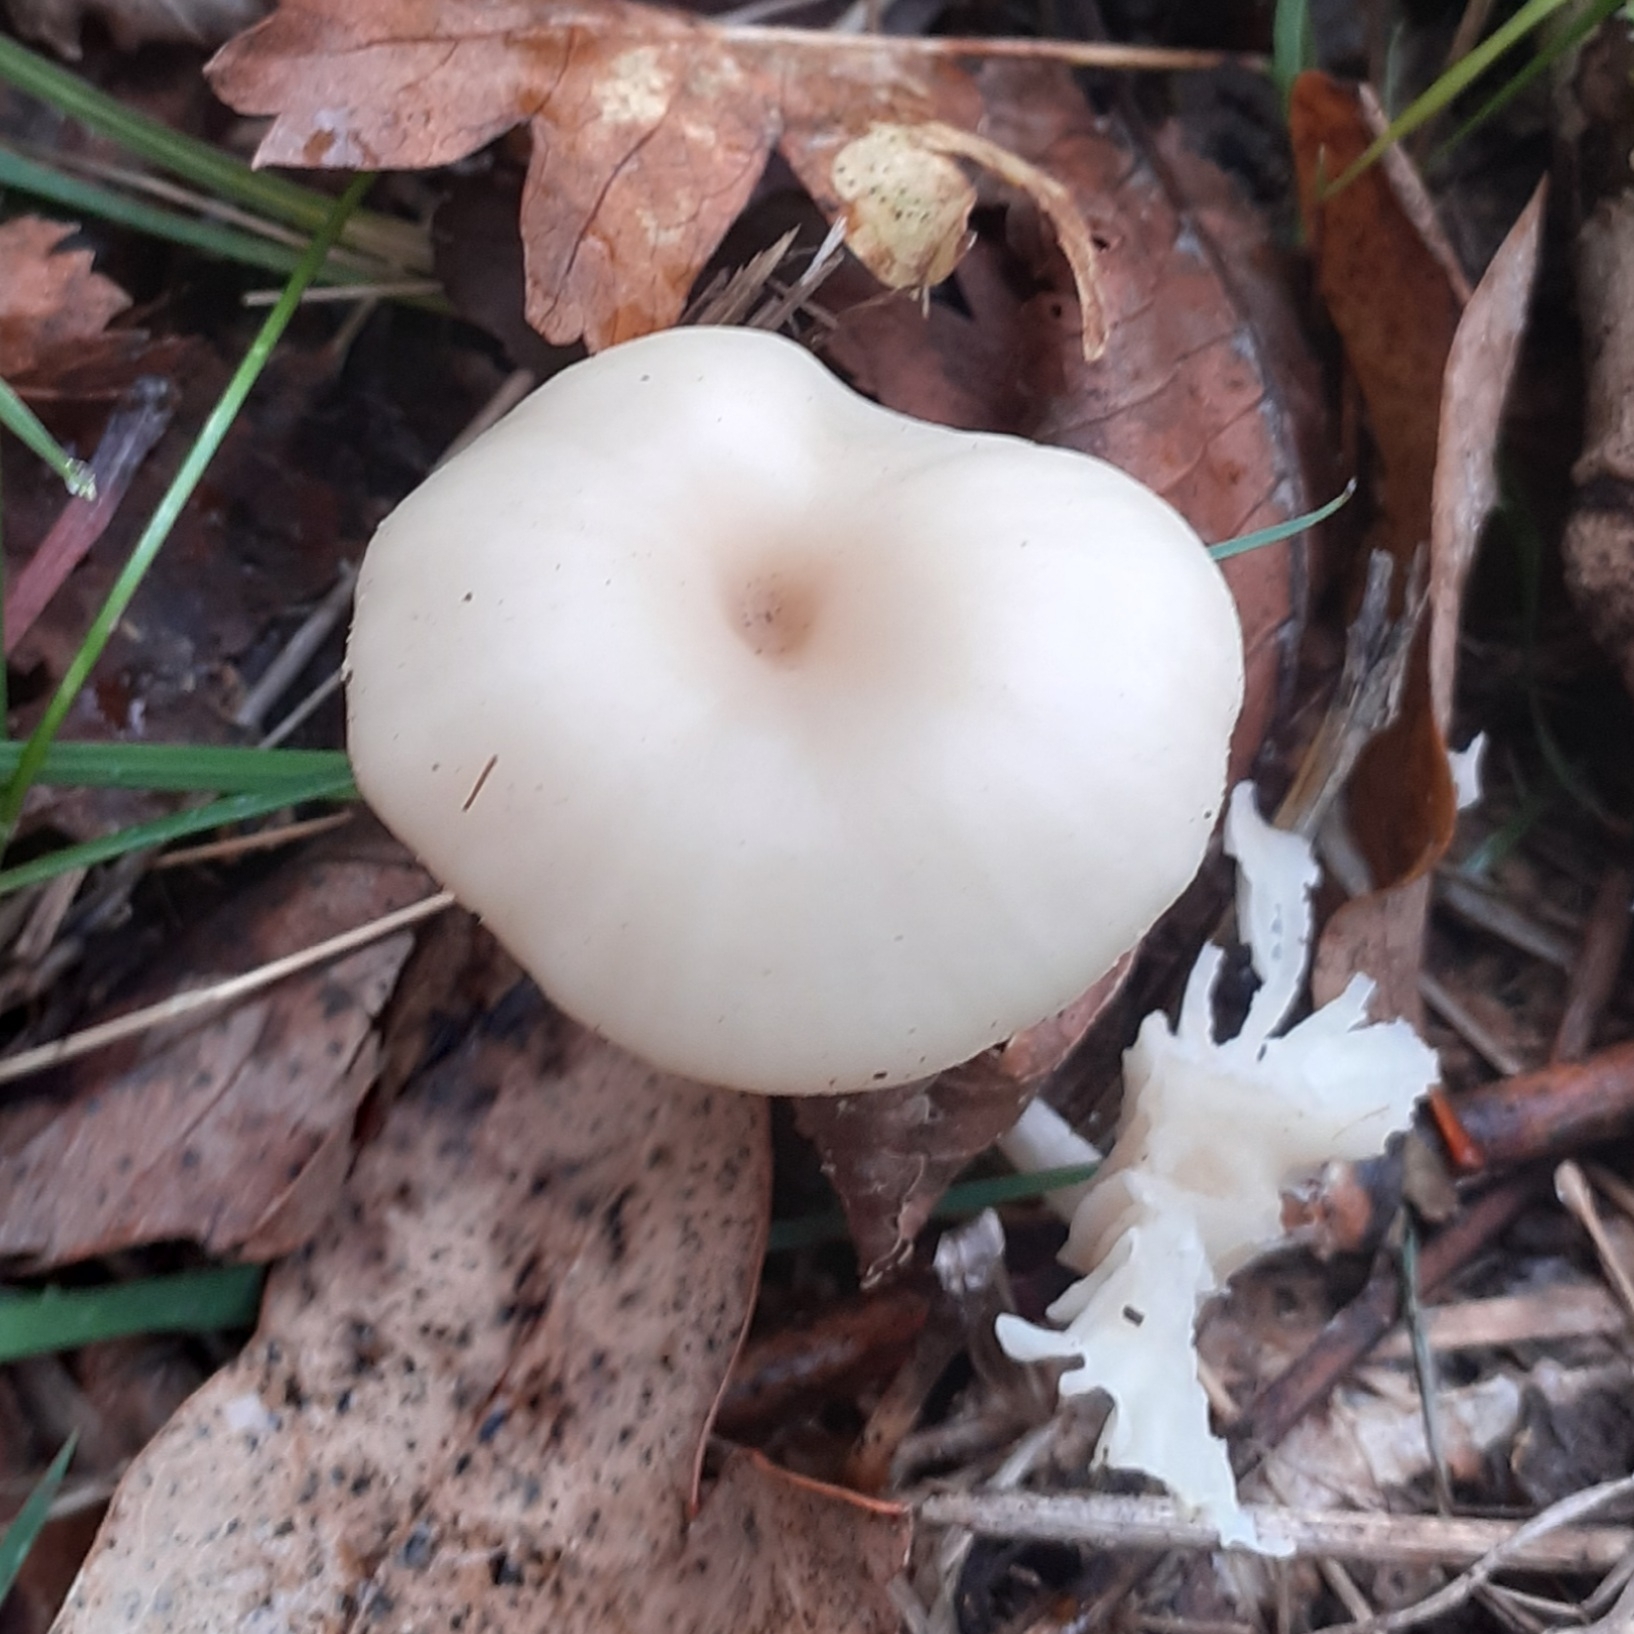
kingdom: Fungi
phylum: Basidiomycota
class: Agaricomycetes
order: Agaricales
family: Hygrophoraceae
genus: Cuphophyllus
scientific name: Cuphophyllus virgineus
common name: Snowy waxcap
